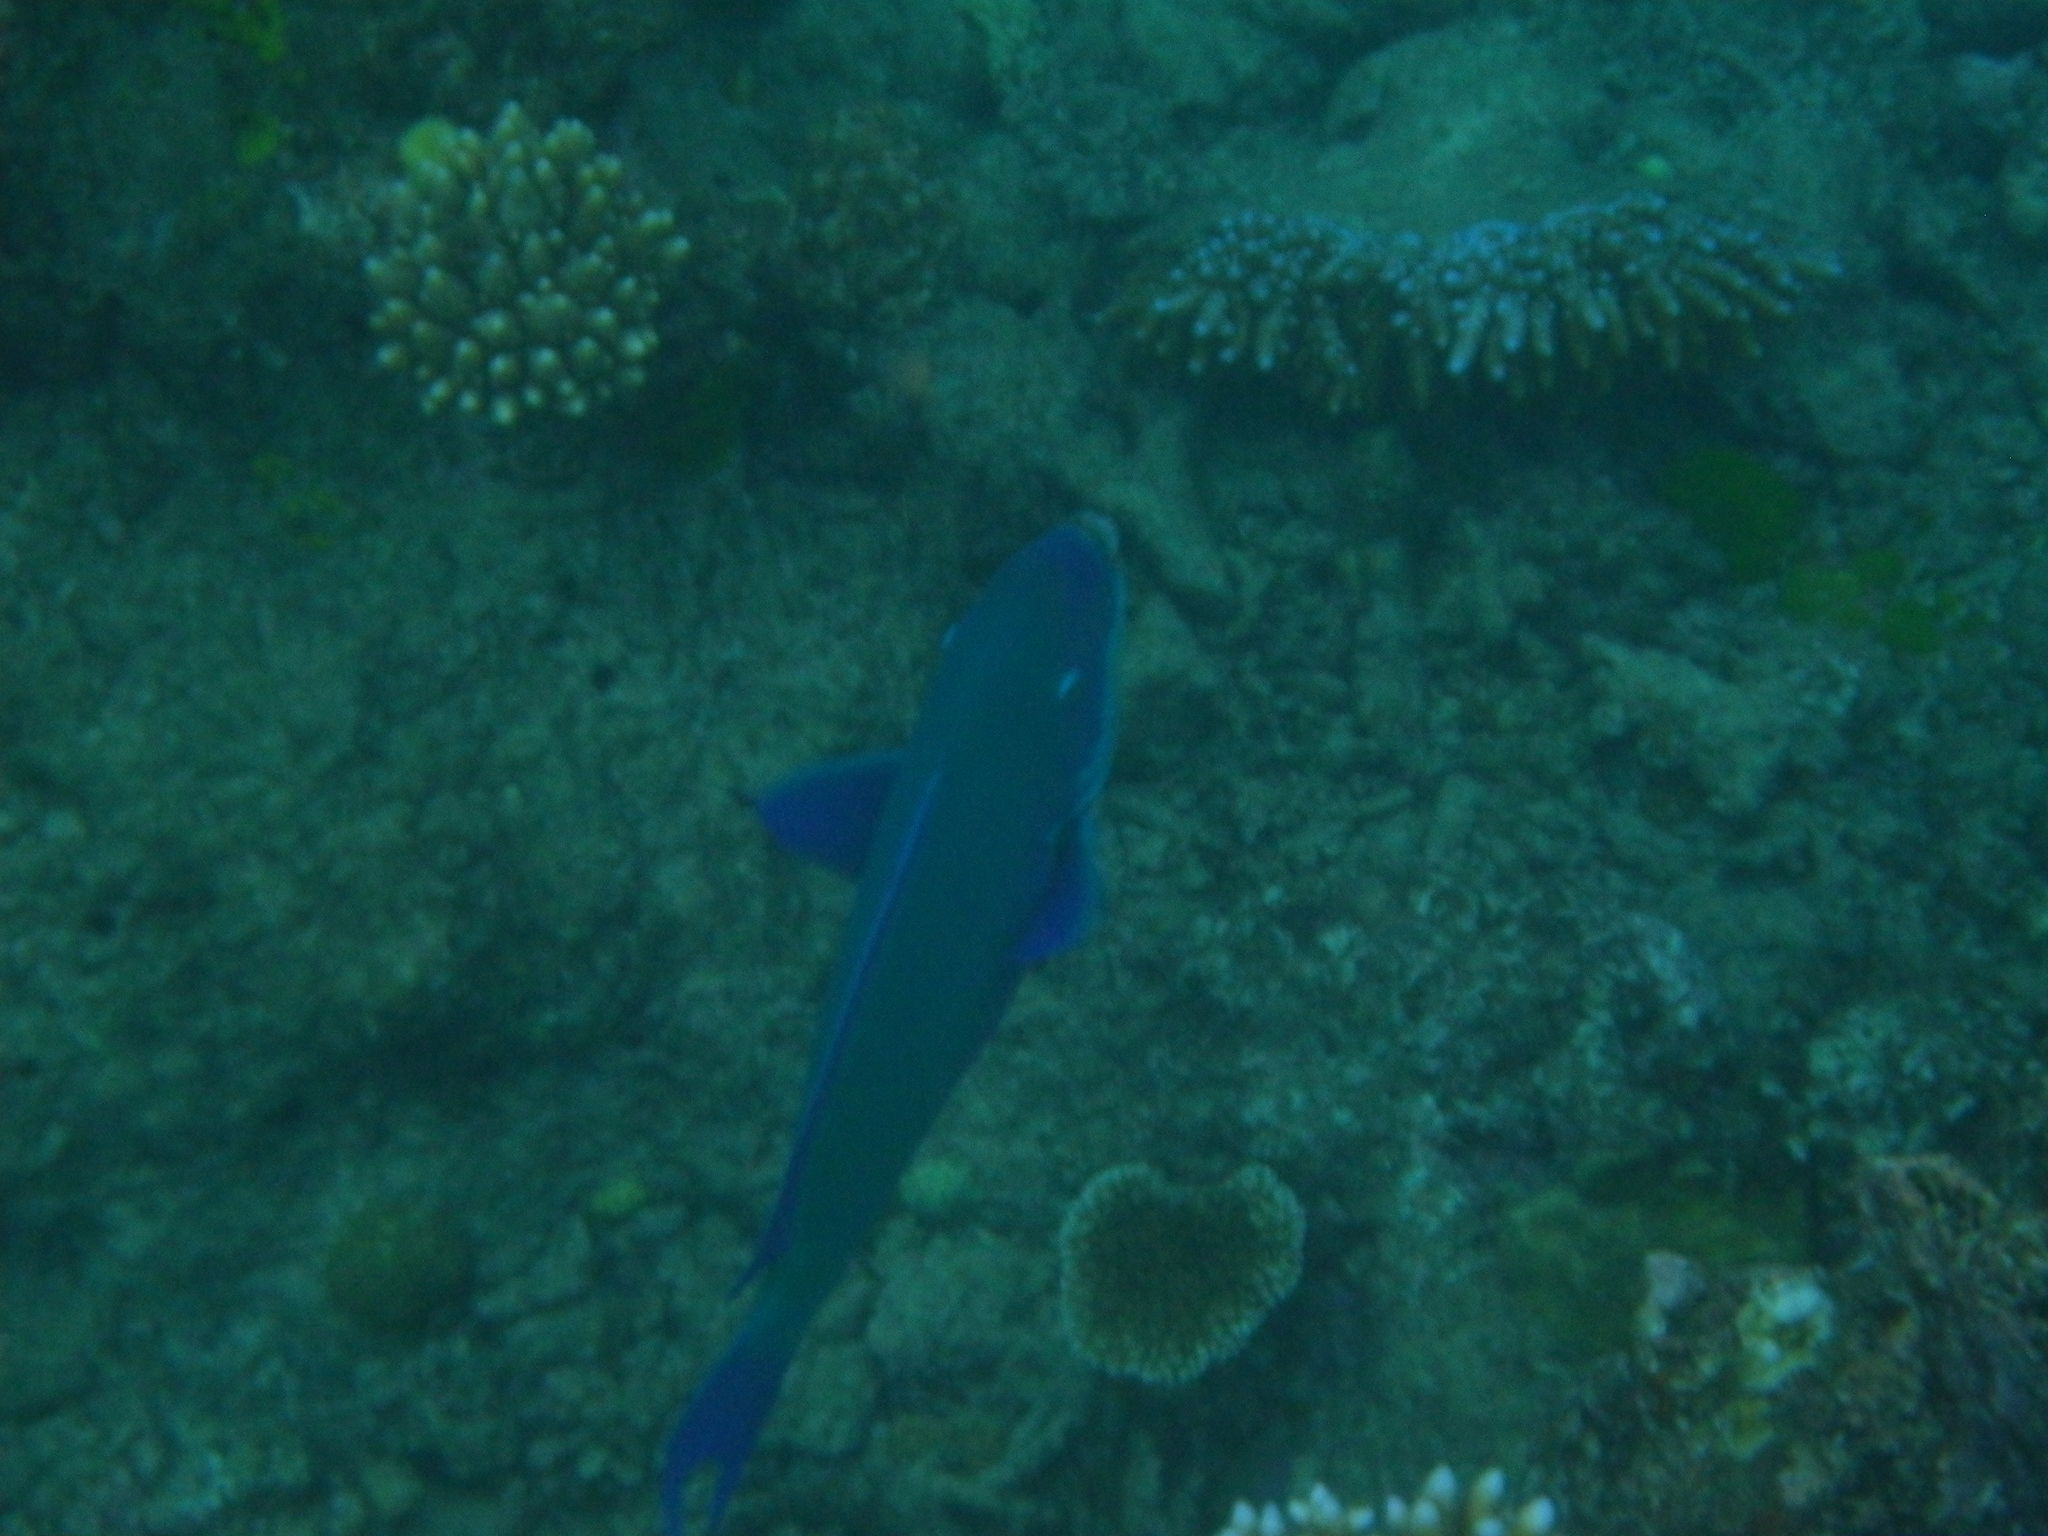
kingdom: Animalia
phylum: Chordata
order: Perciformes
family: Scaridae
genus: Chlorurus
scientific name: Chlorurus microrhinos
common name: Steephead parrotfish
